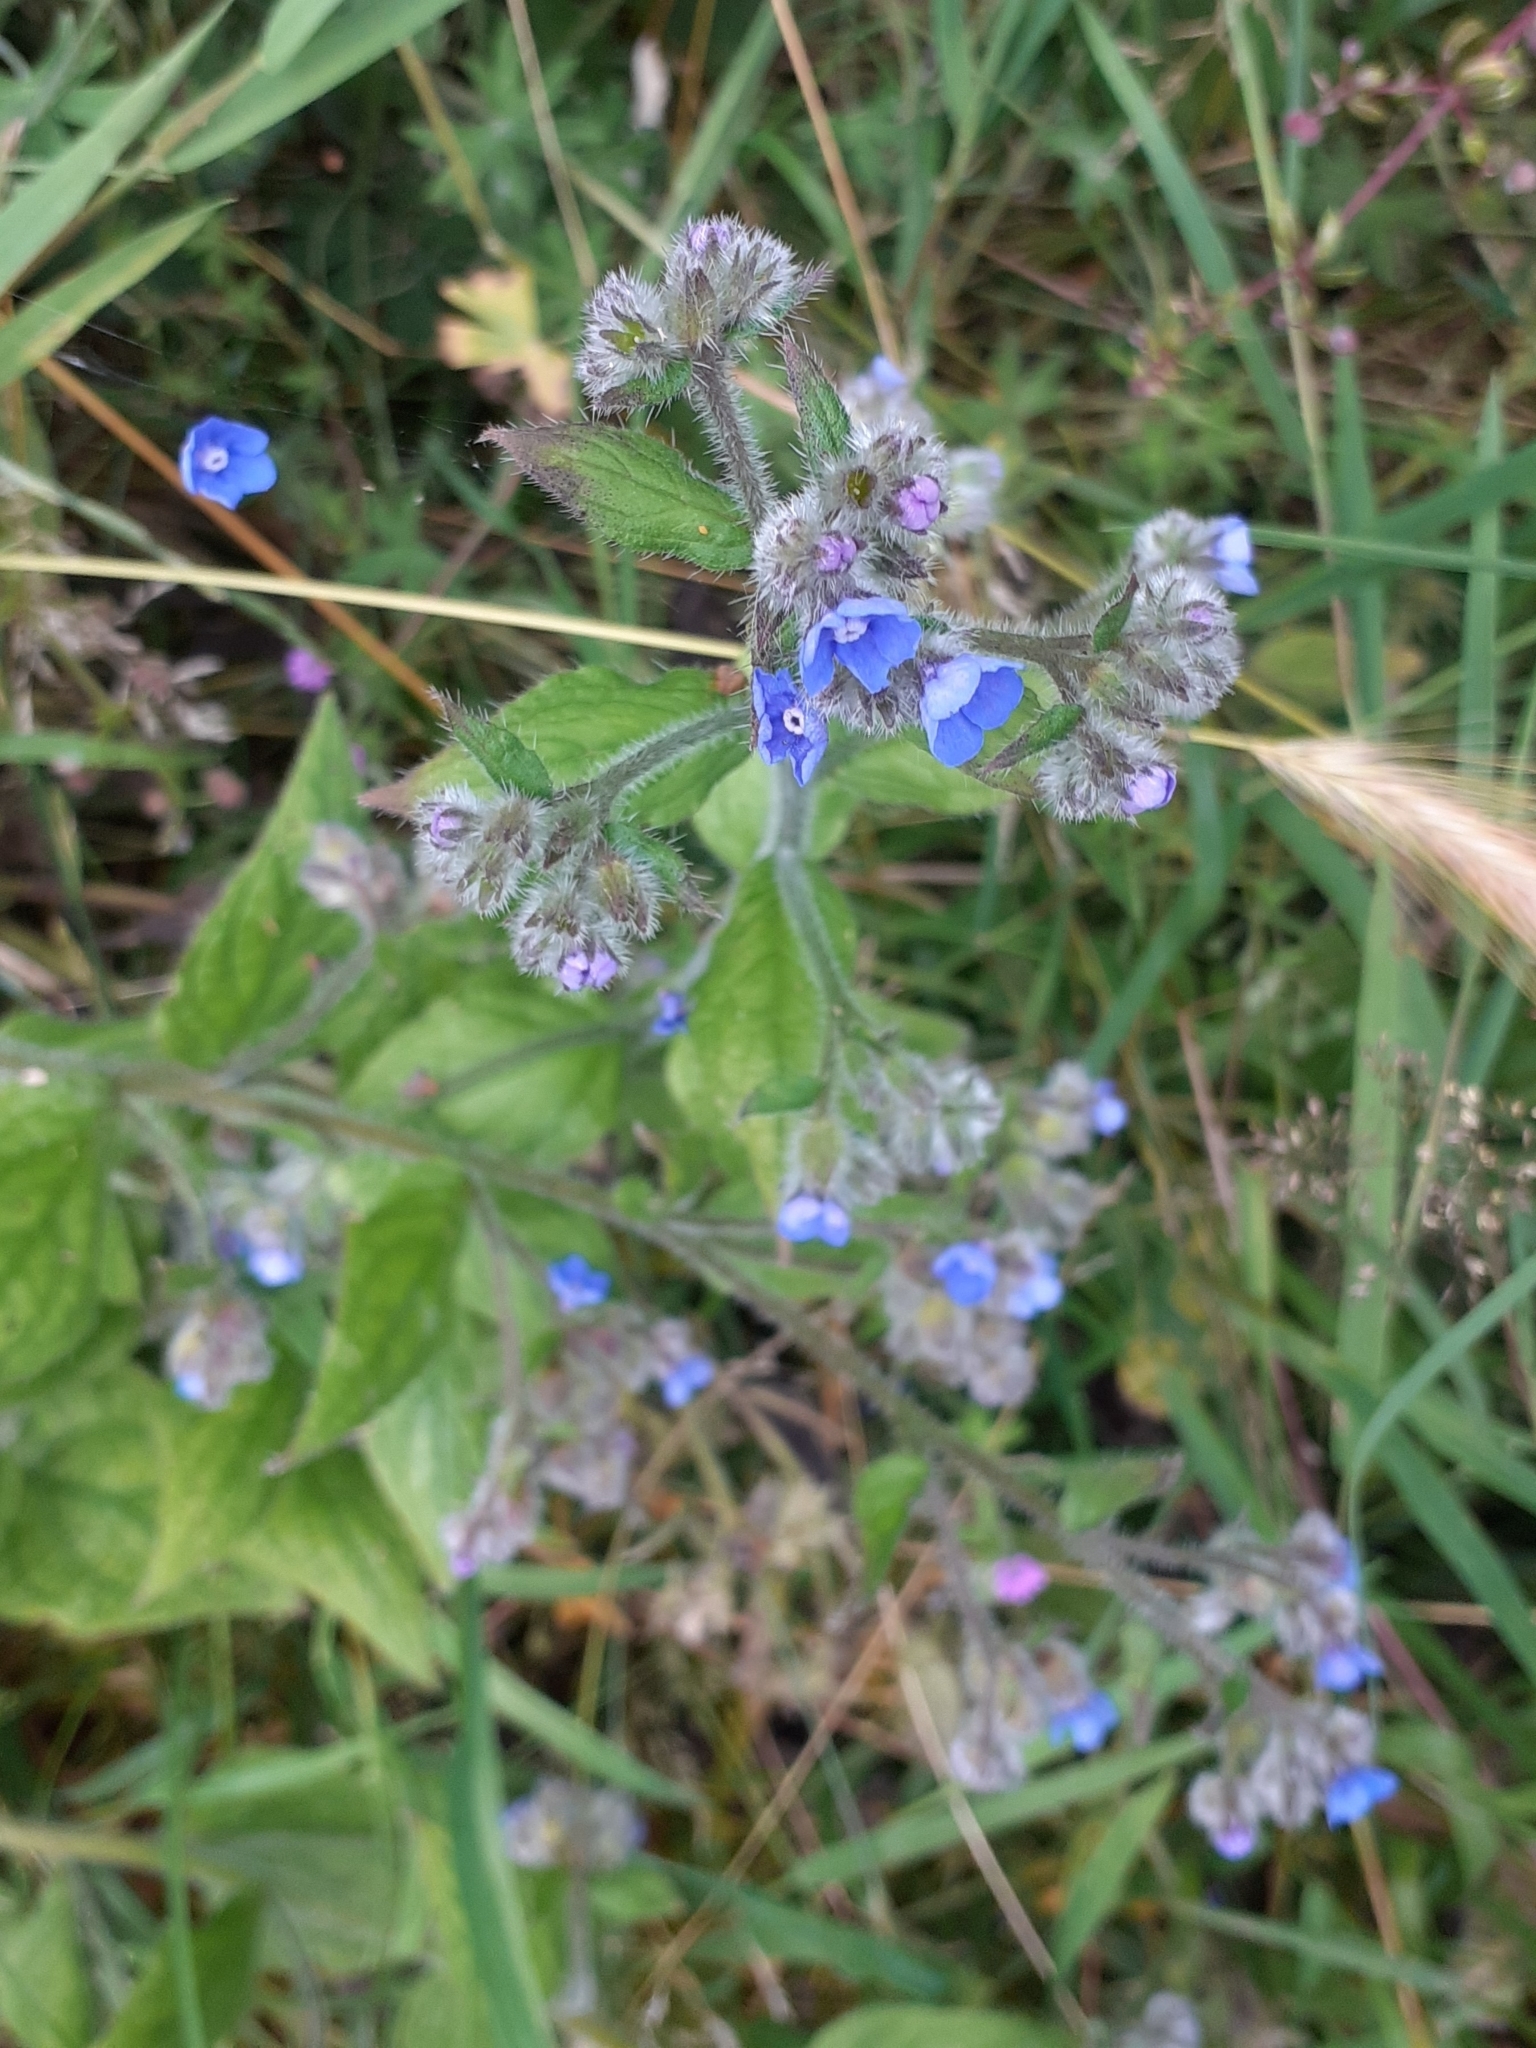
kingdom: Plantae
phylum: Tracheophyta
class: Magnoliopsida
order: Boraginales
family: Boraginaceae
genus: Pentaglottis
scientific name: Pentaglottis sempervirens
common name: Green alkanet
